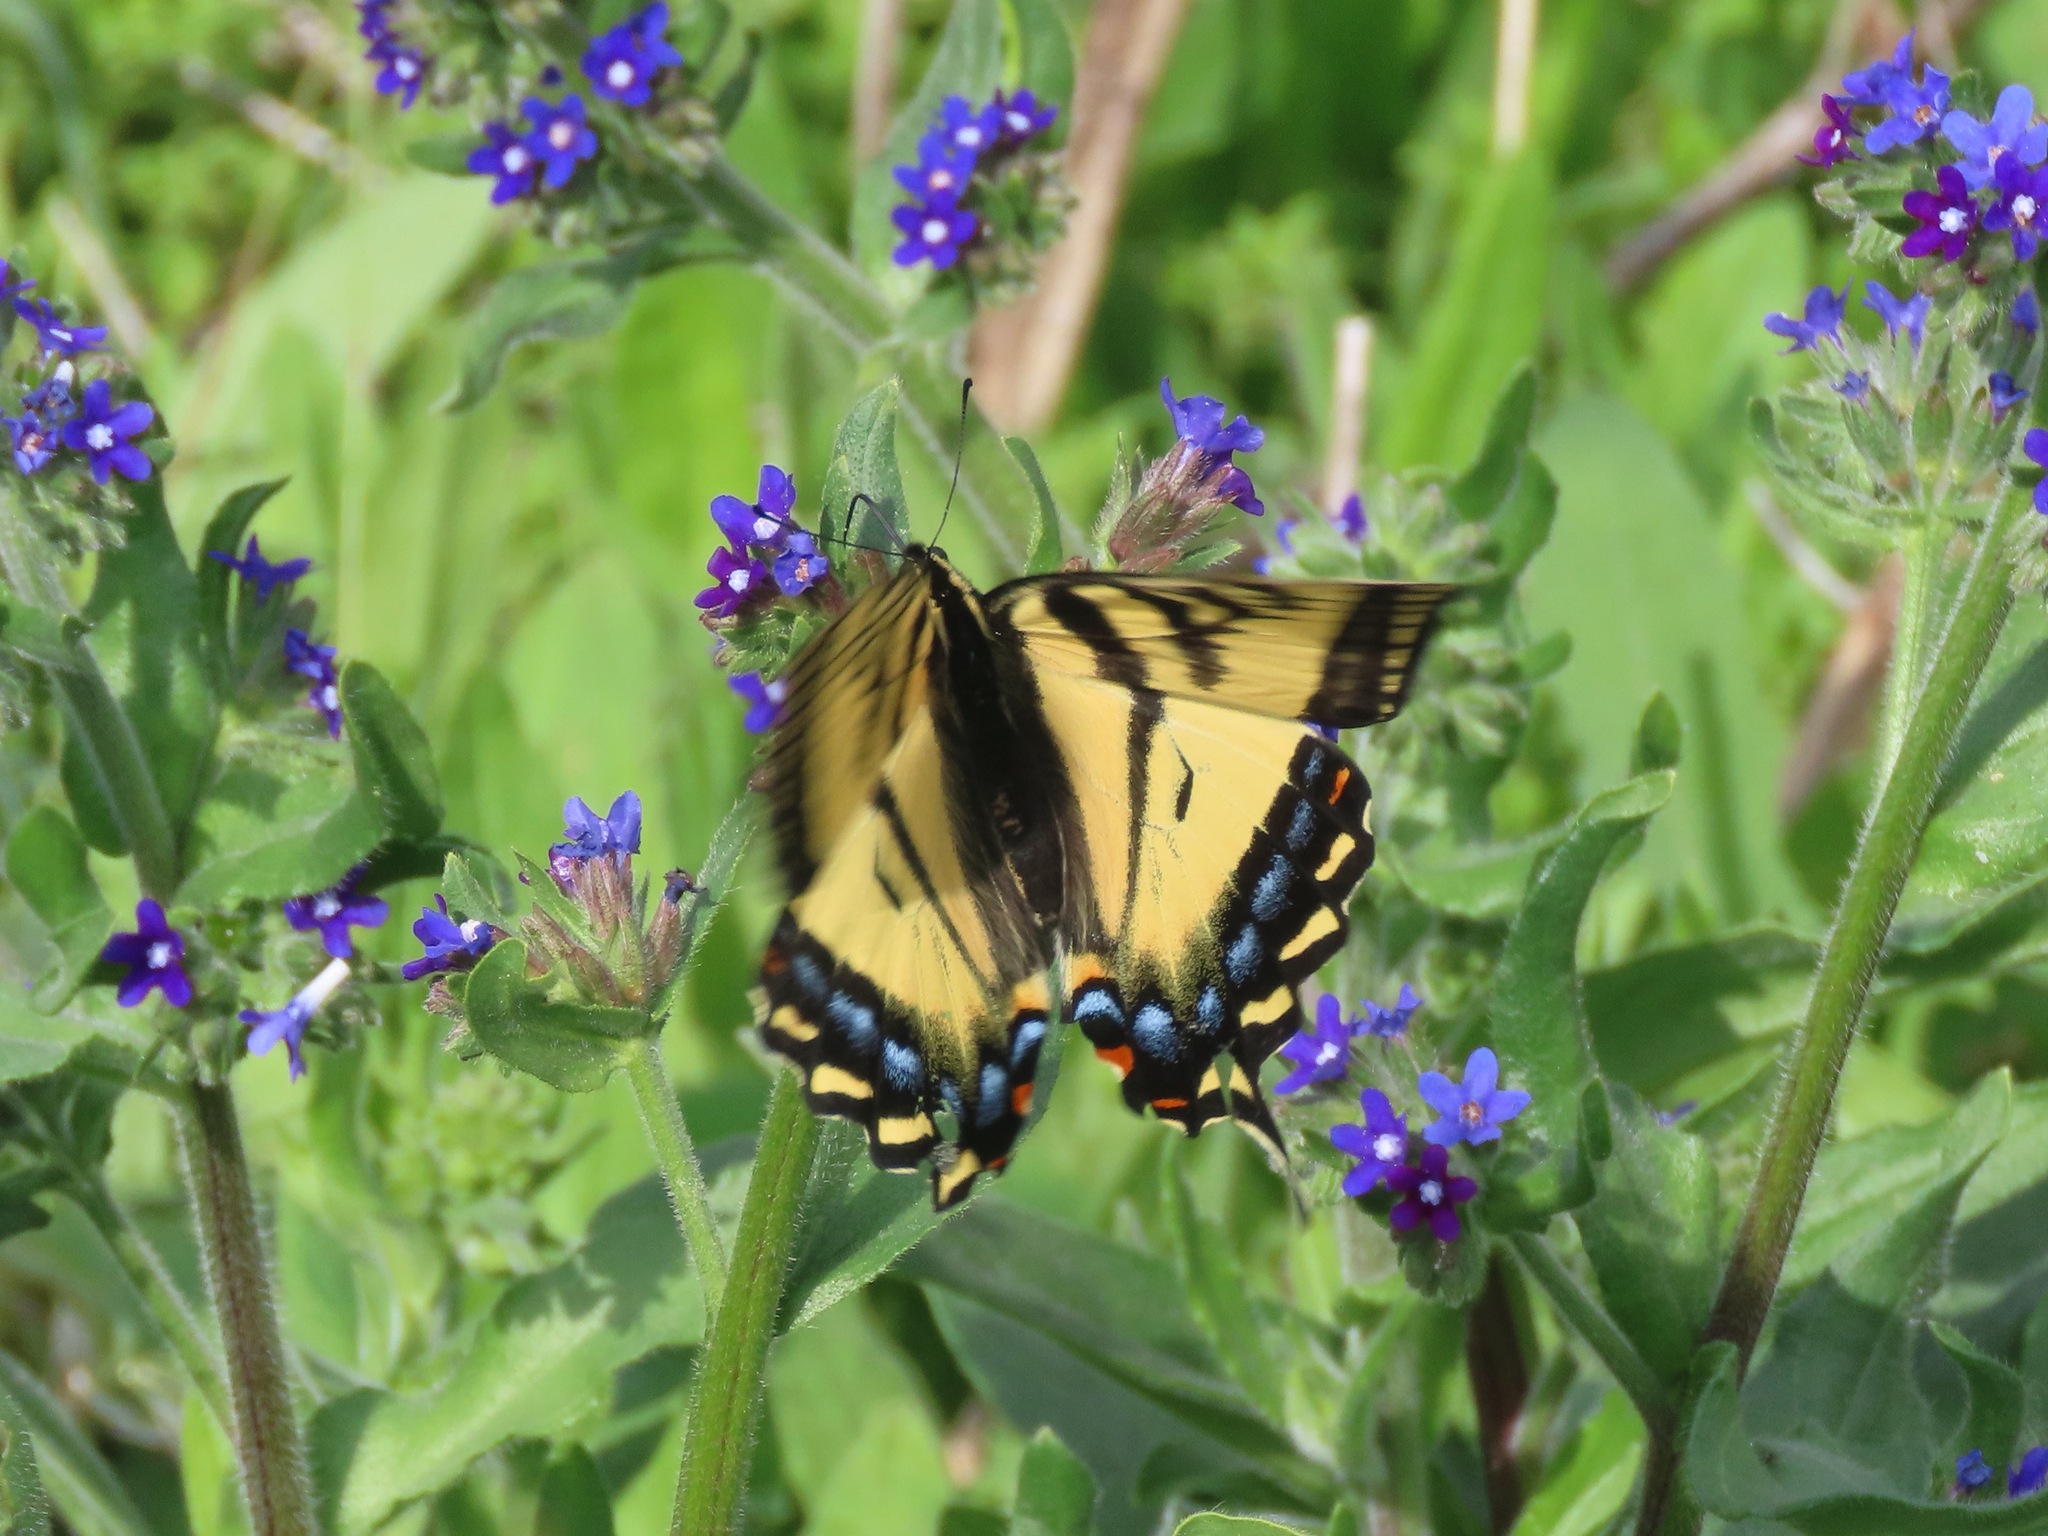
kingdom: Animalia
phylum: Arthropoda
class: Insecta
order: Lepidoptera
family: Papilionidae
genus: Papilio
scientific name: Papilio canadensis
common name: Canadian tiger swallowtail
